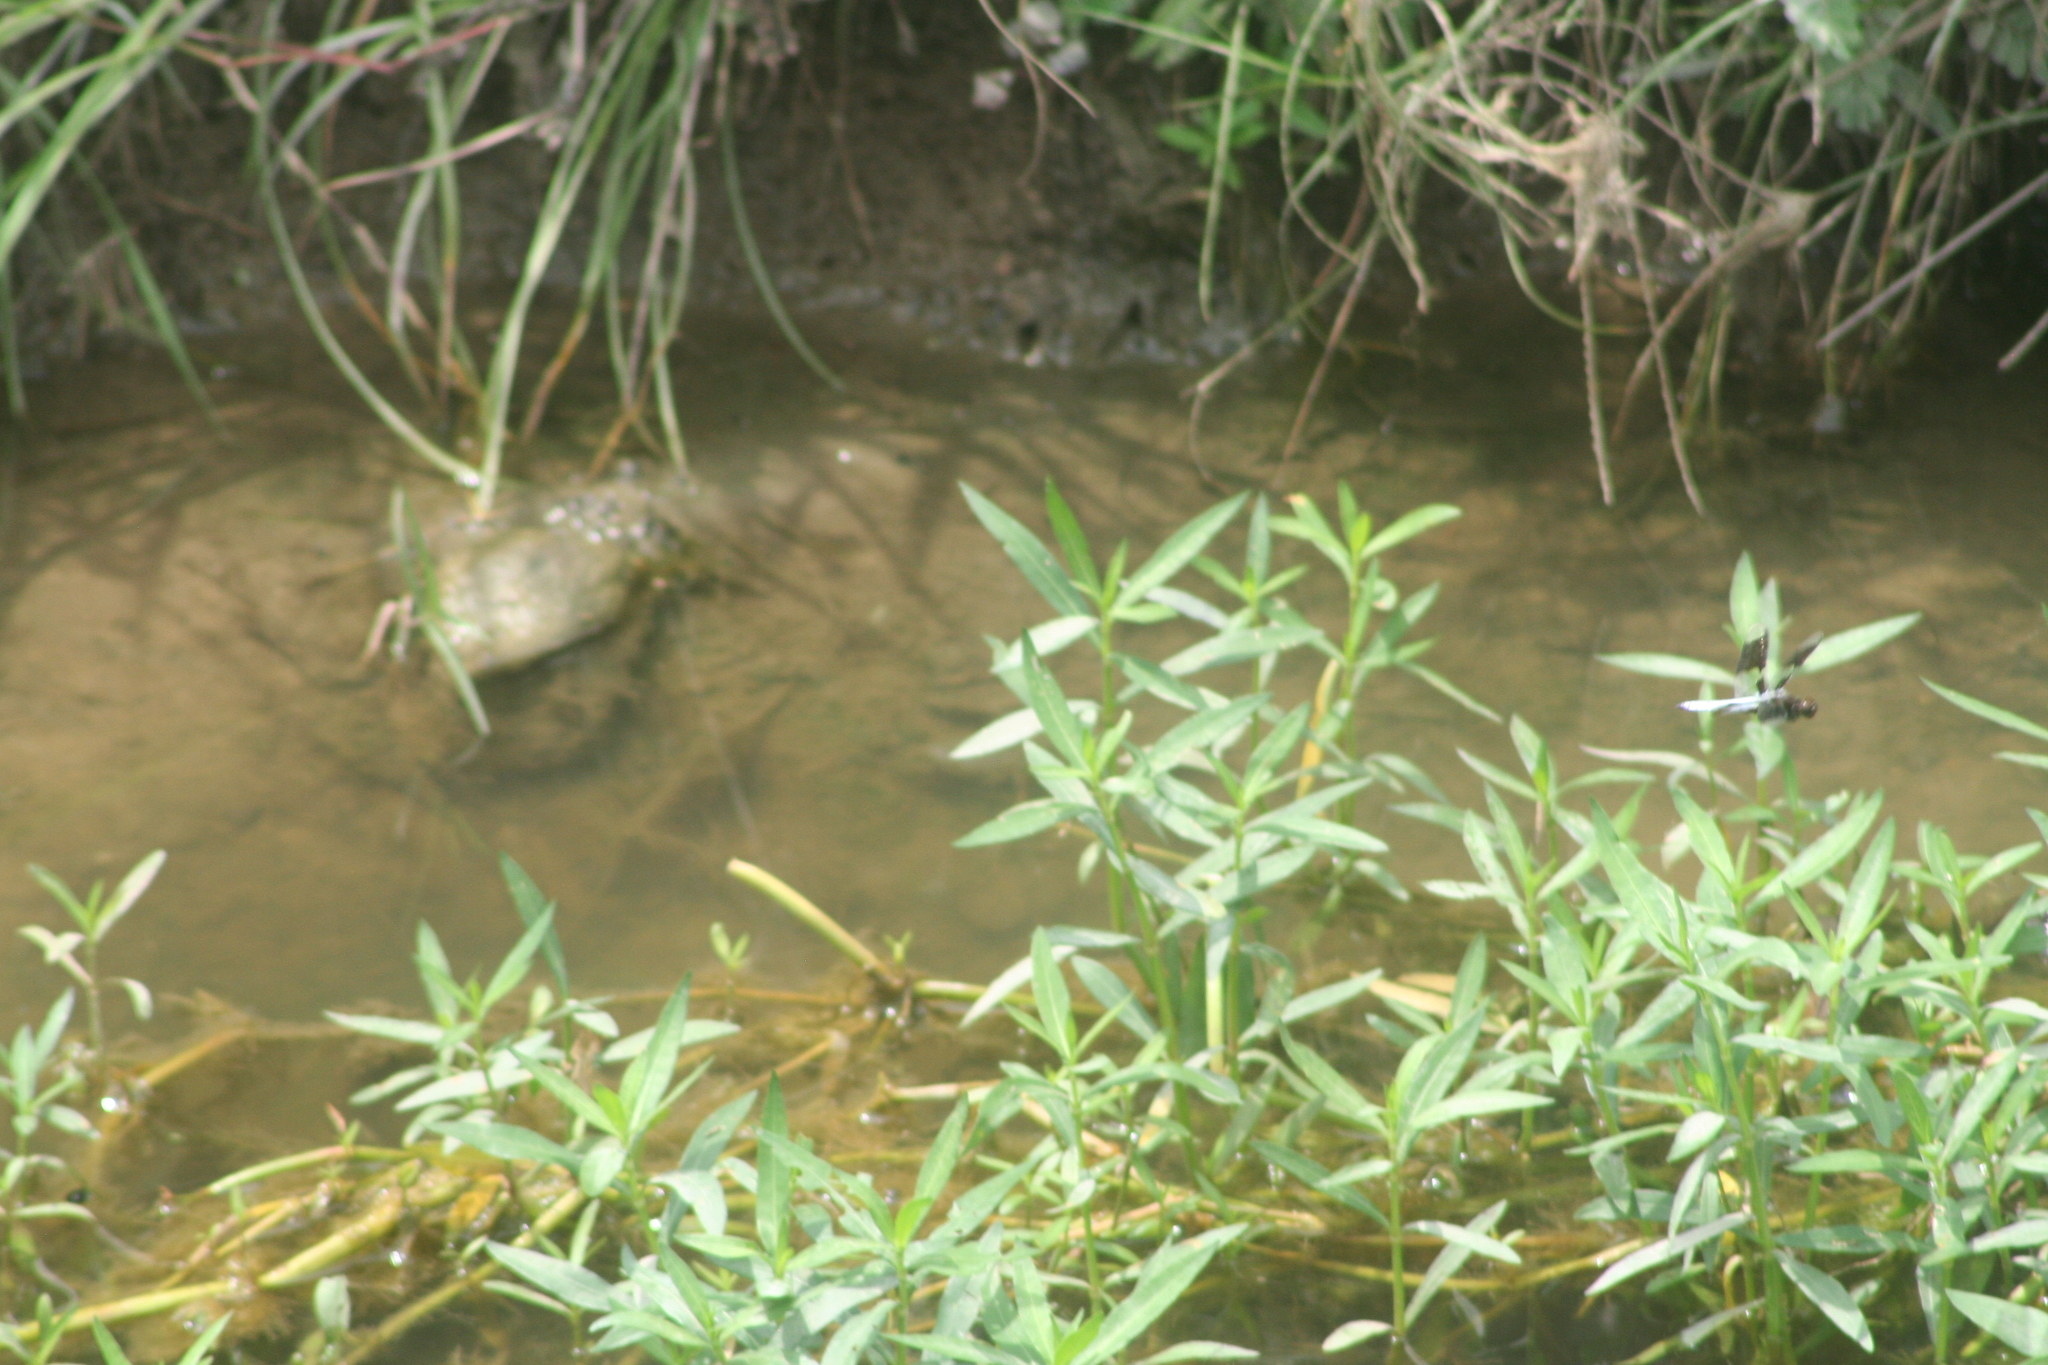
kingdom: Animalia
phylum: Arthropoda
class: Insecta
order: Odonata
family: Libellulidae
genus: Plathemis
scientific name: Plathemis lydia
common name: Common whitetail
